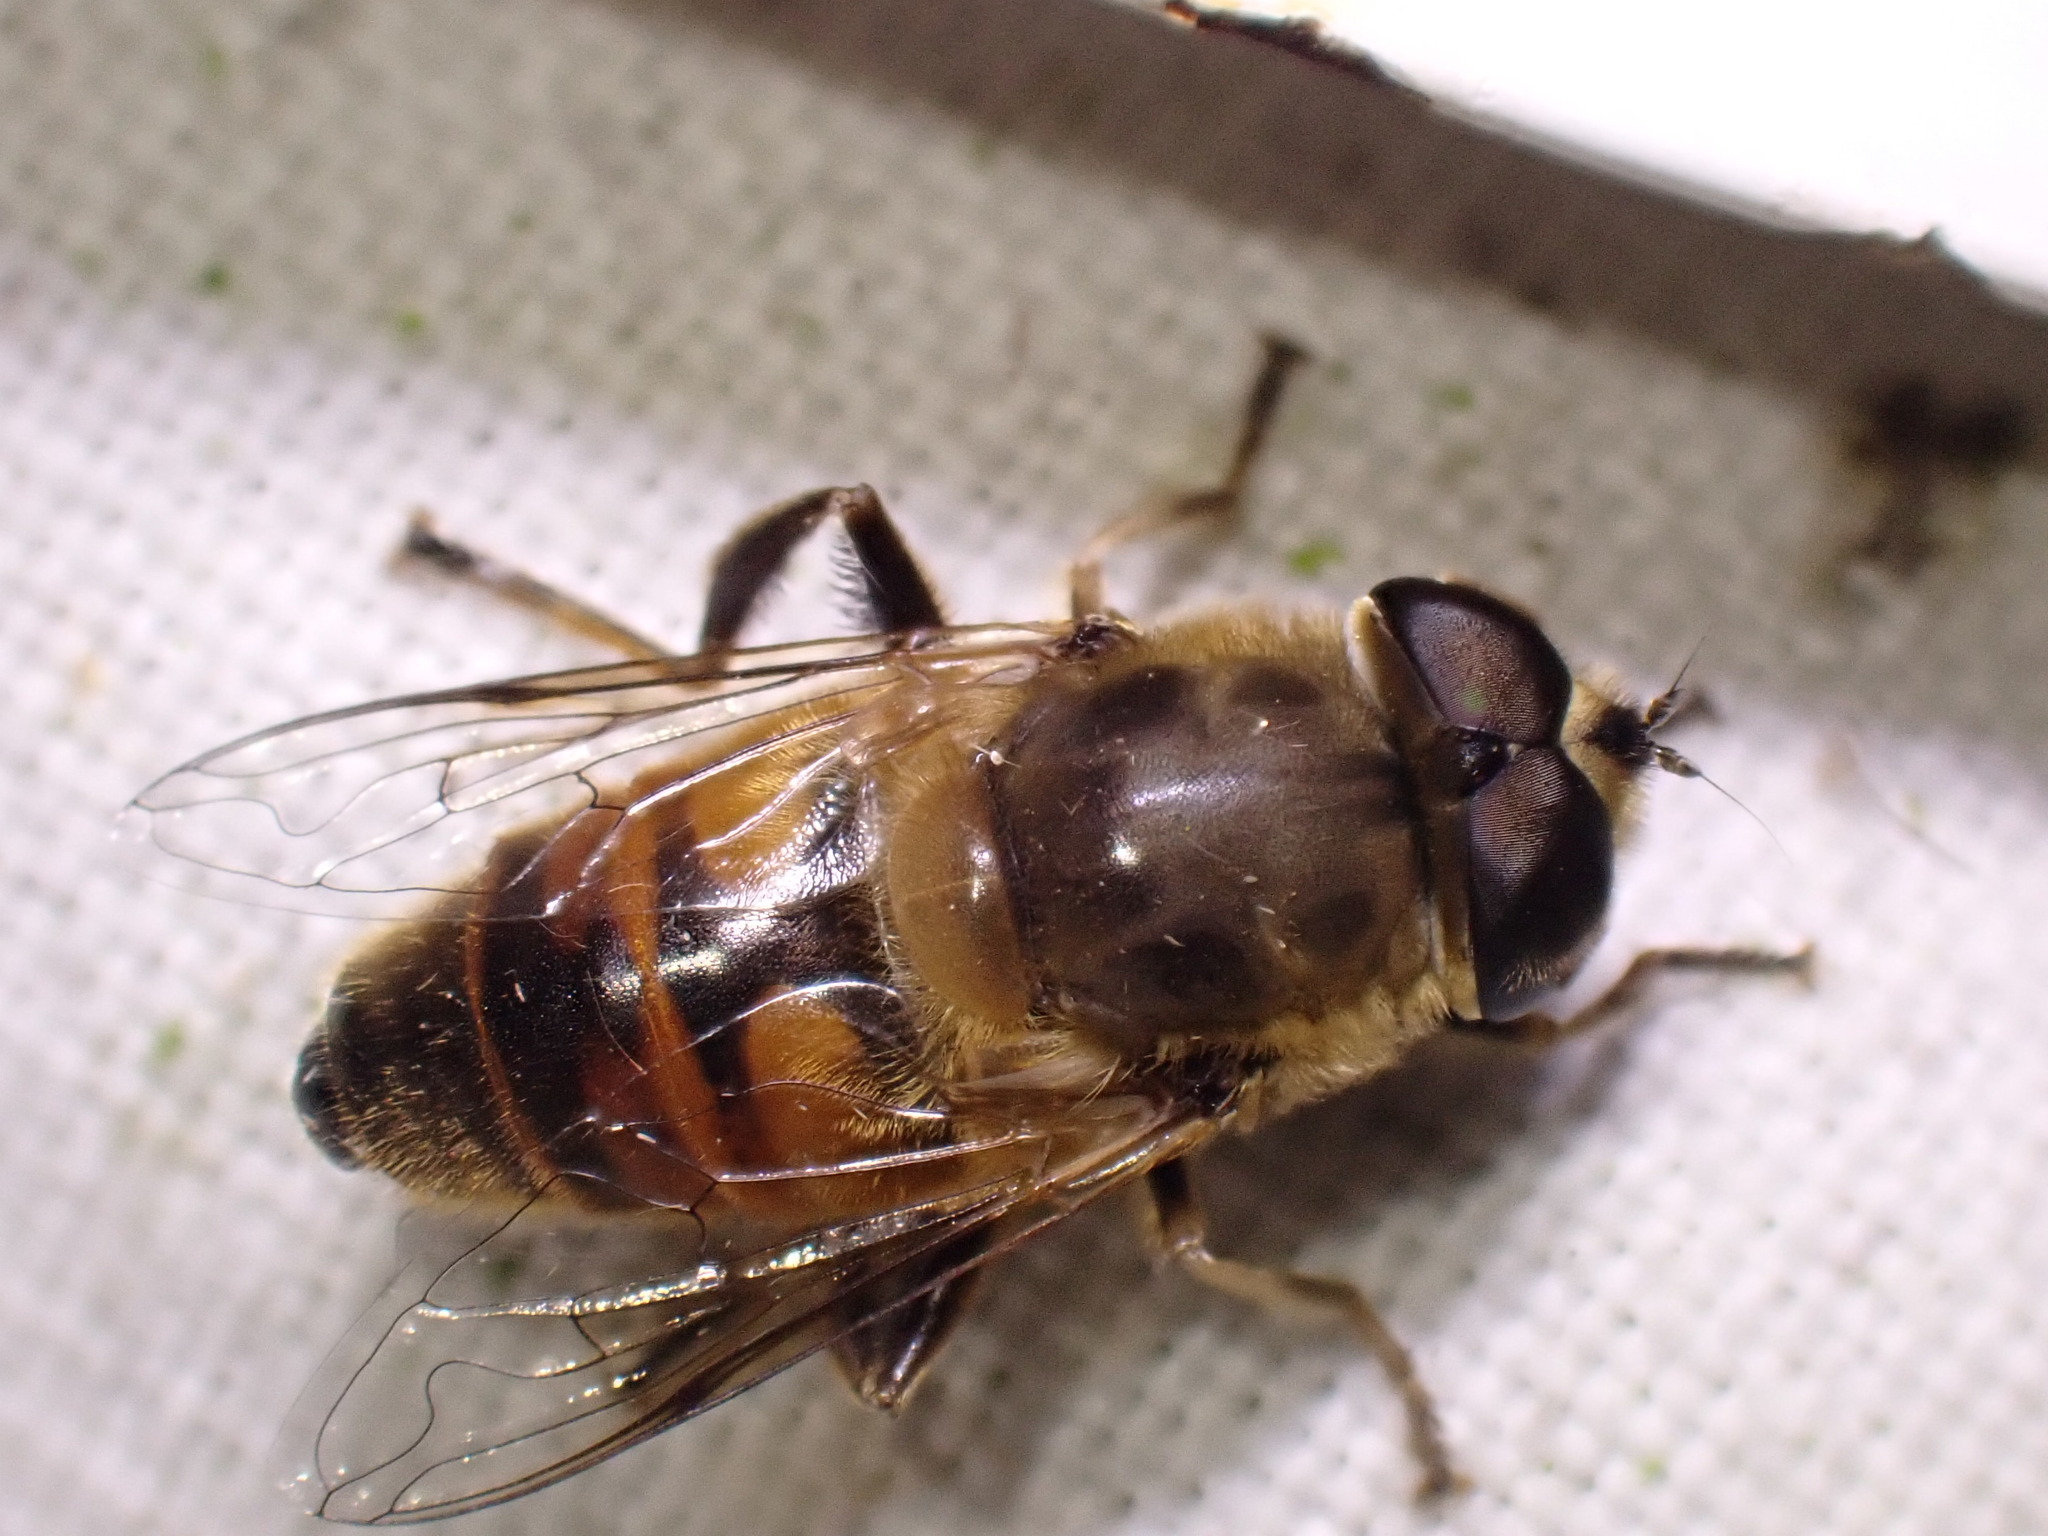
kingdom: Animalia
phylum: Arthropoda
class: Insecta
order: Diptera
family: Syrphidae
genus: Eristalis
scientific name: Eristalis tenax
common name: Drone fly
